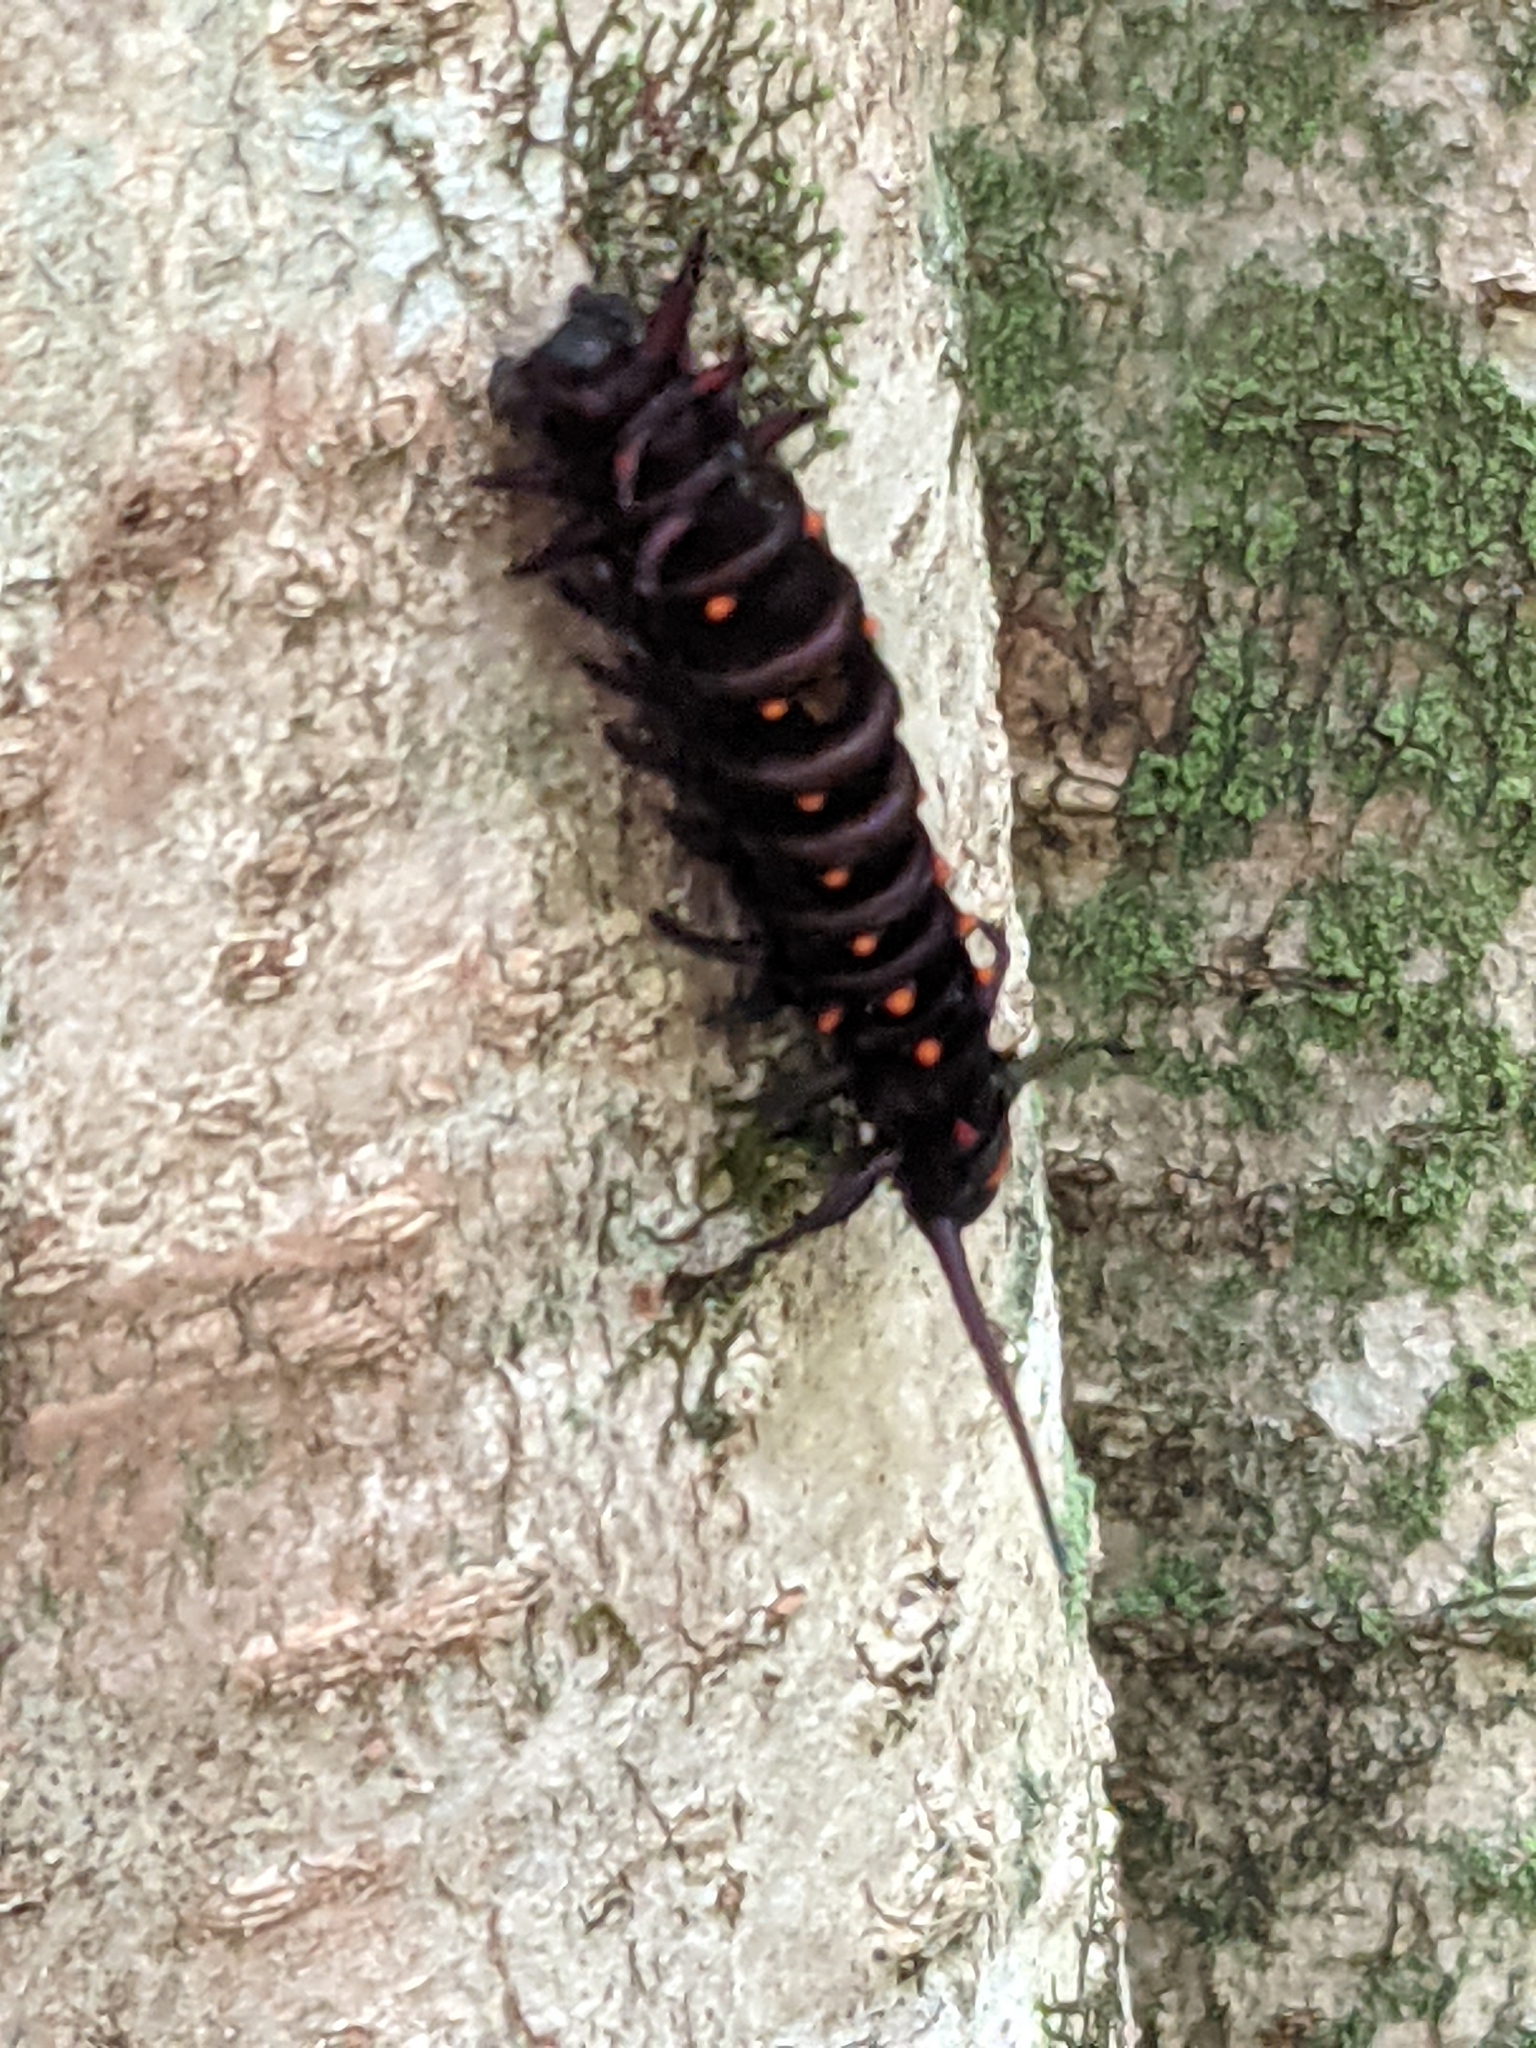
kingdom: Animalia
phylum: Arthropoda
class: Insecta
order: Lepidoptera
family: Papilionidae
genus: Battus
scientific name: Battus philenor
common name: Pipevine swallowtail
